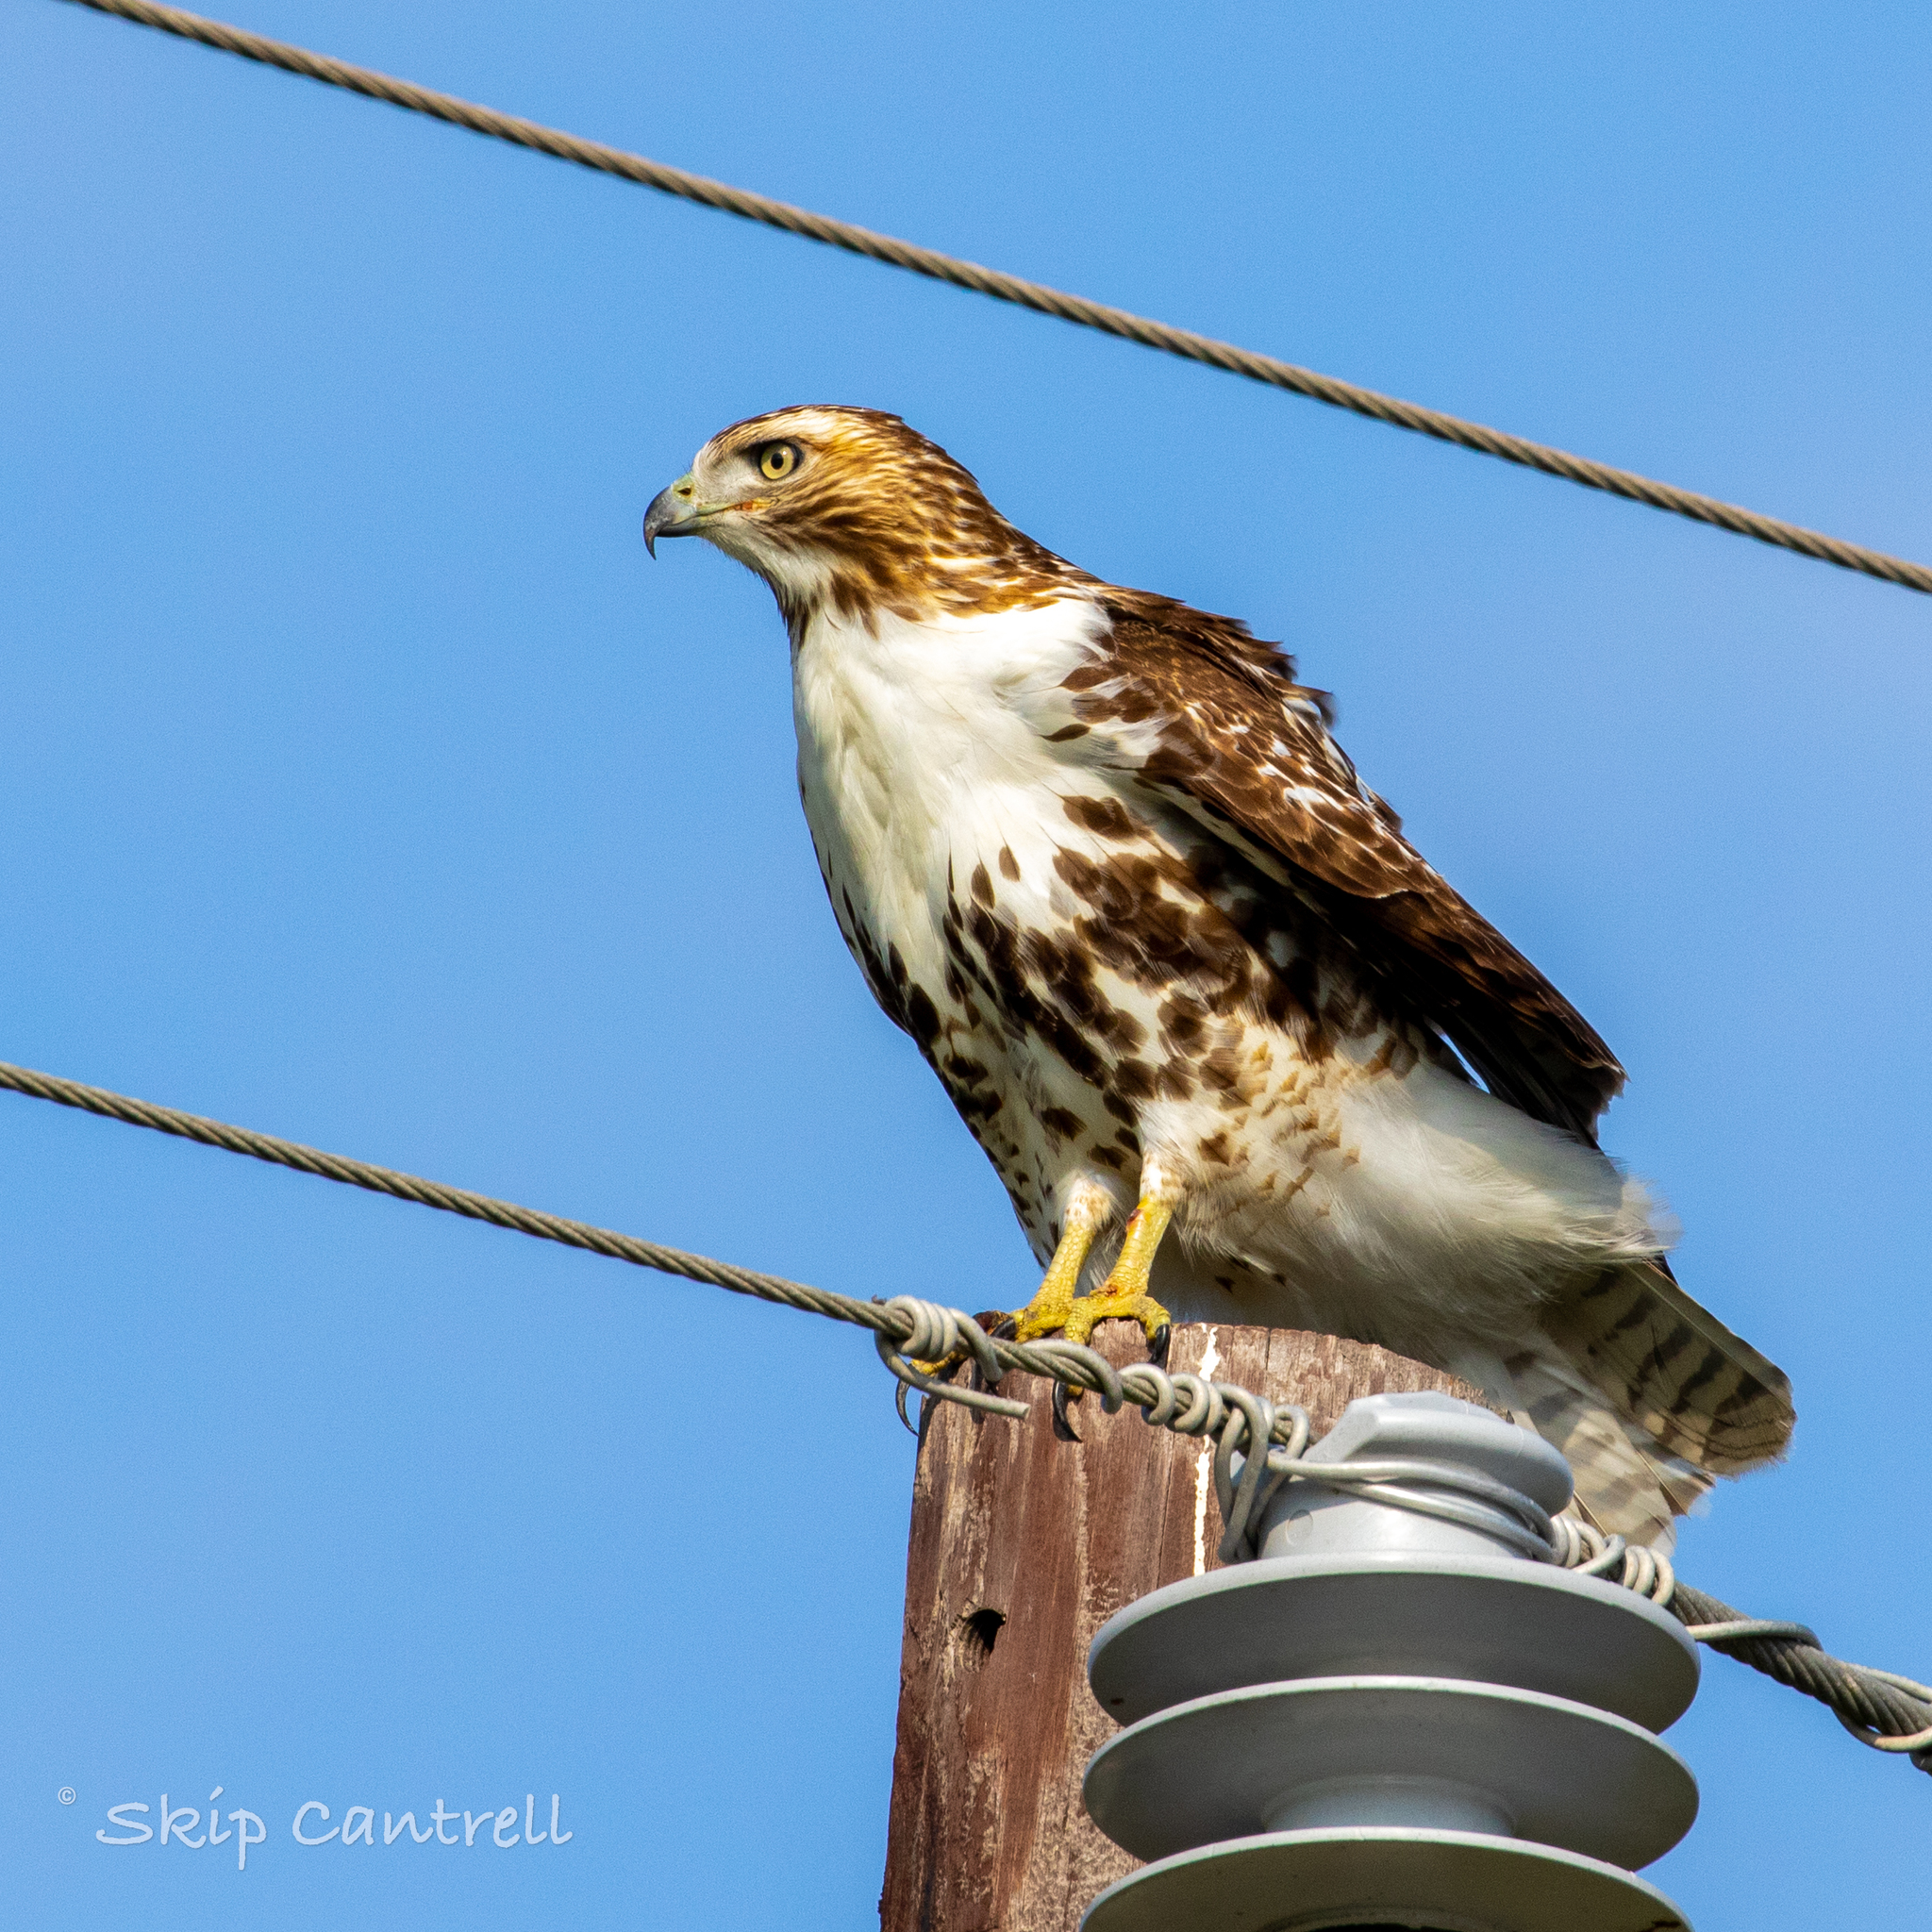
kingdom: Animalia
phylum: Chordata
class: Aves
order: Accipitriformes
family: Accipitridae
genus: Buteo
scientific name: Buteo jamaicensis
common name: Red-tailed hawk
